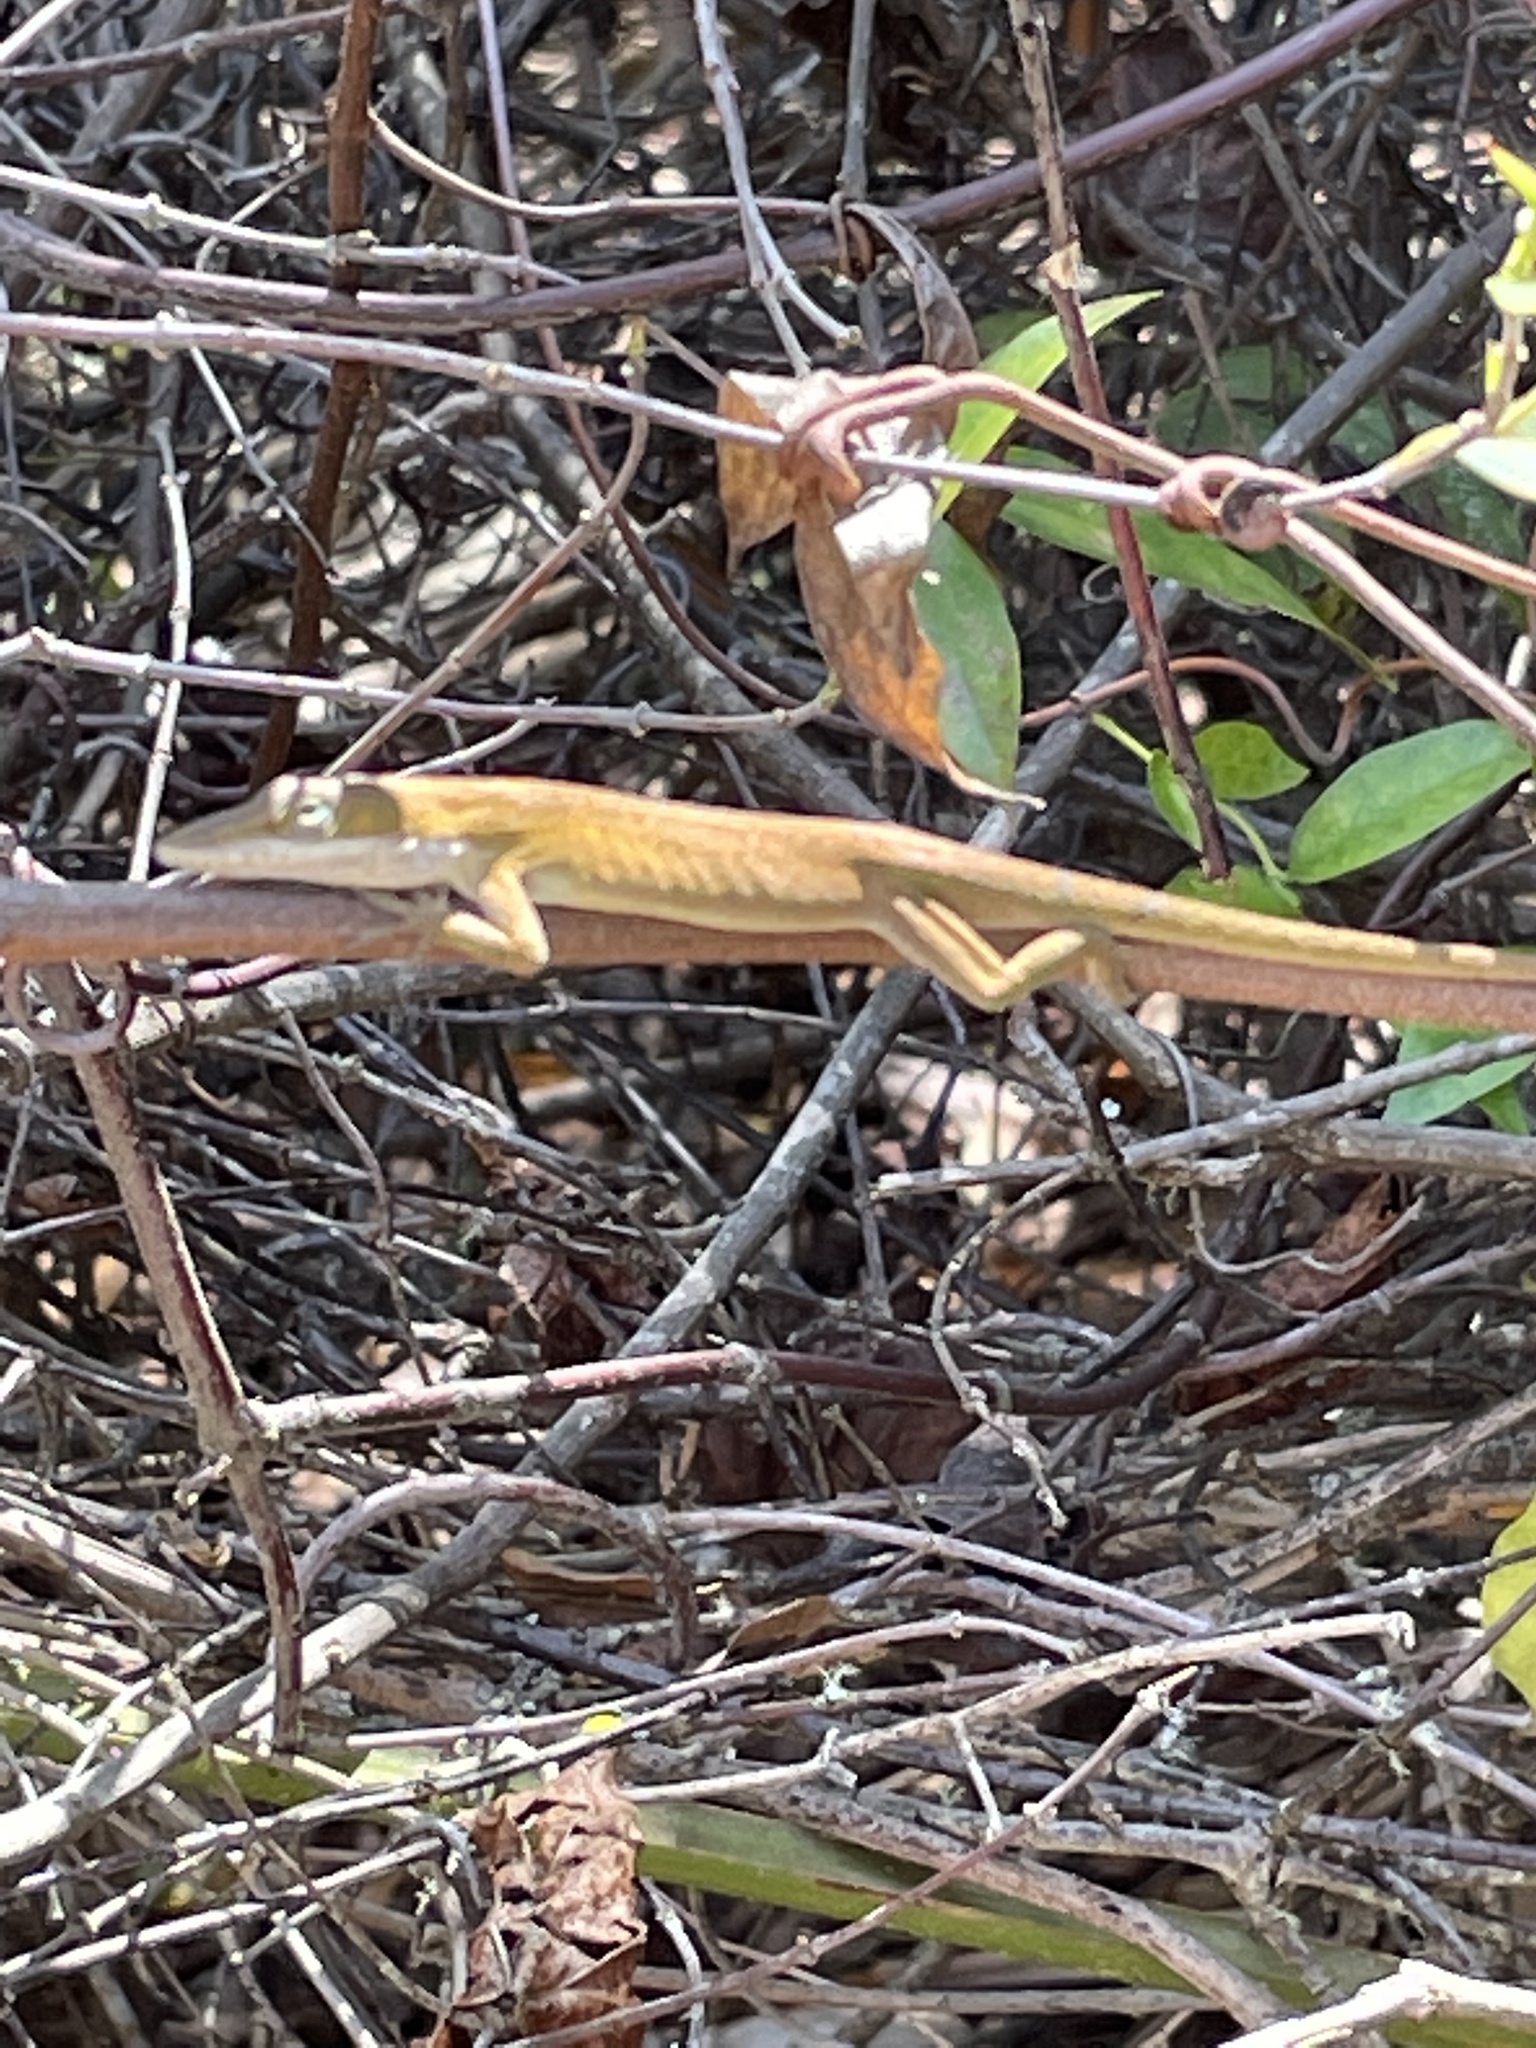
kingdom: Animalia
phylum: Chordata
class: Squamata
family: Dactyloidae
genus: Anolis
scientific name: Anolis carolinensis
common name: Green anole
